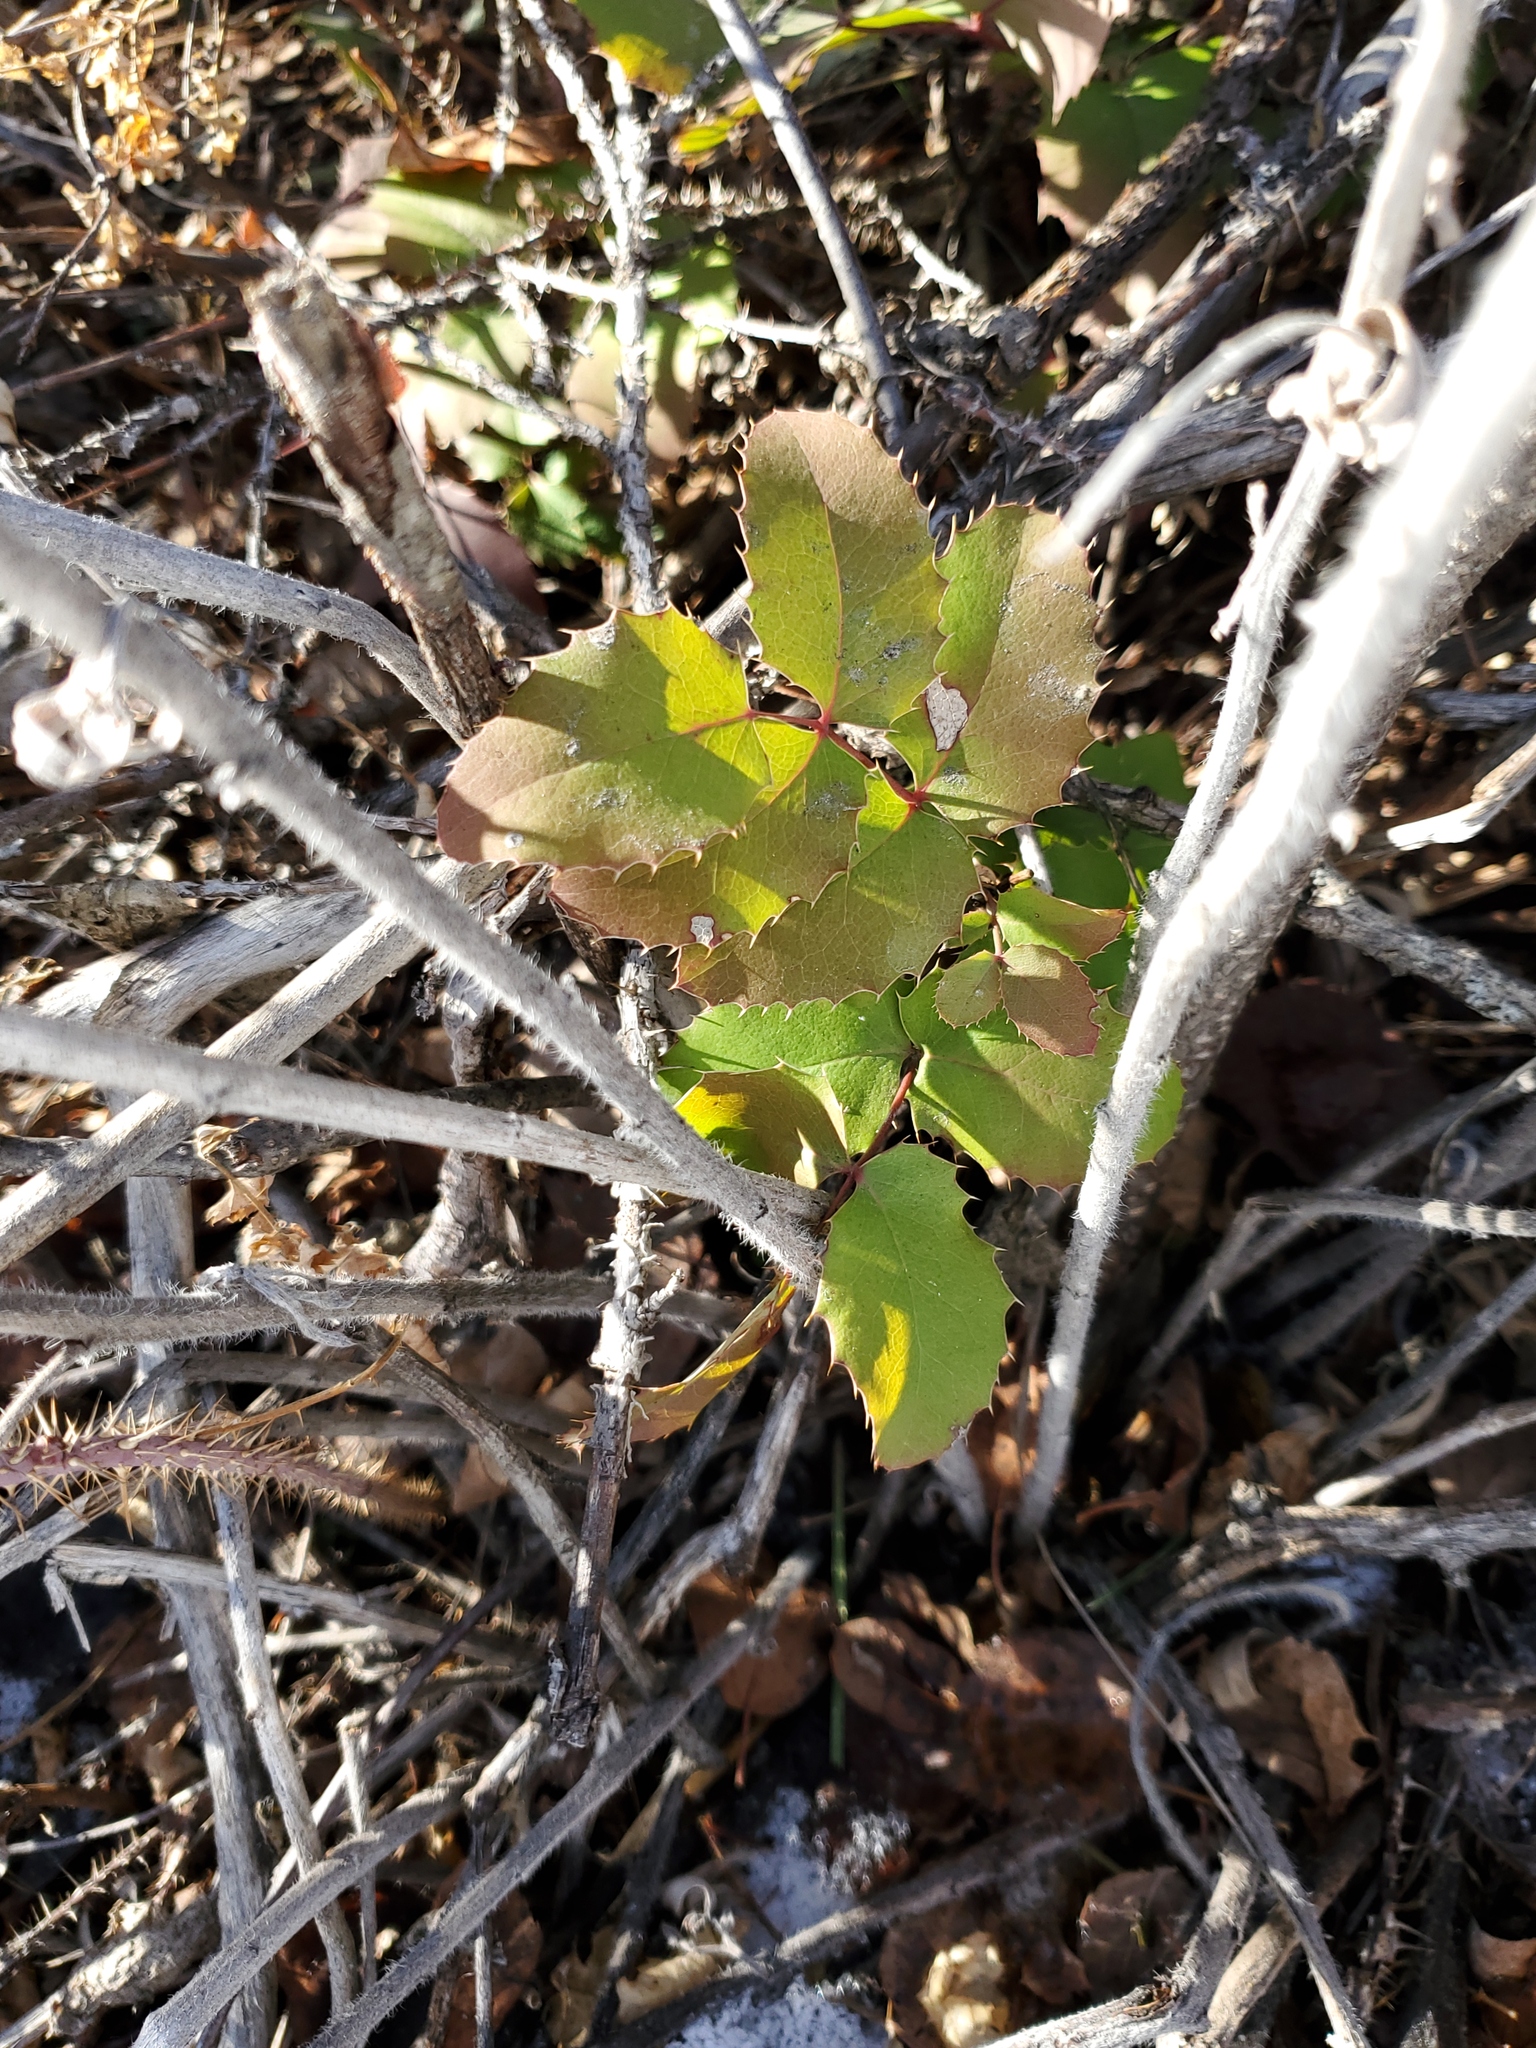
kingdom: Plantae
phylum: Tracheophyta
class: Magnoliopsida
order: Ranunculales
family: Berberidaceae
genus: Mahonia
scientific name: Mahonia repens
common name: Creeping oregon-grape
